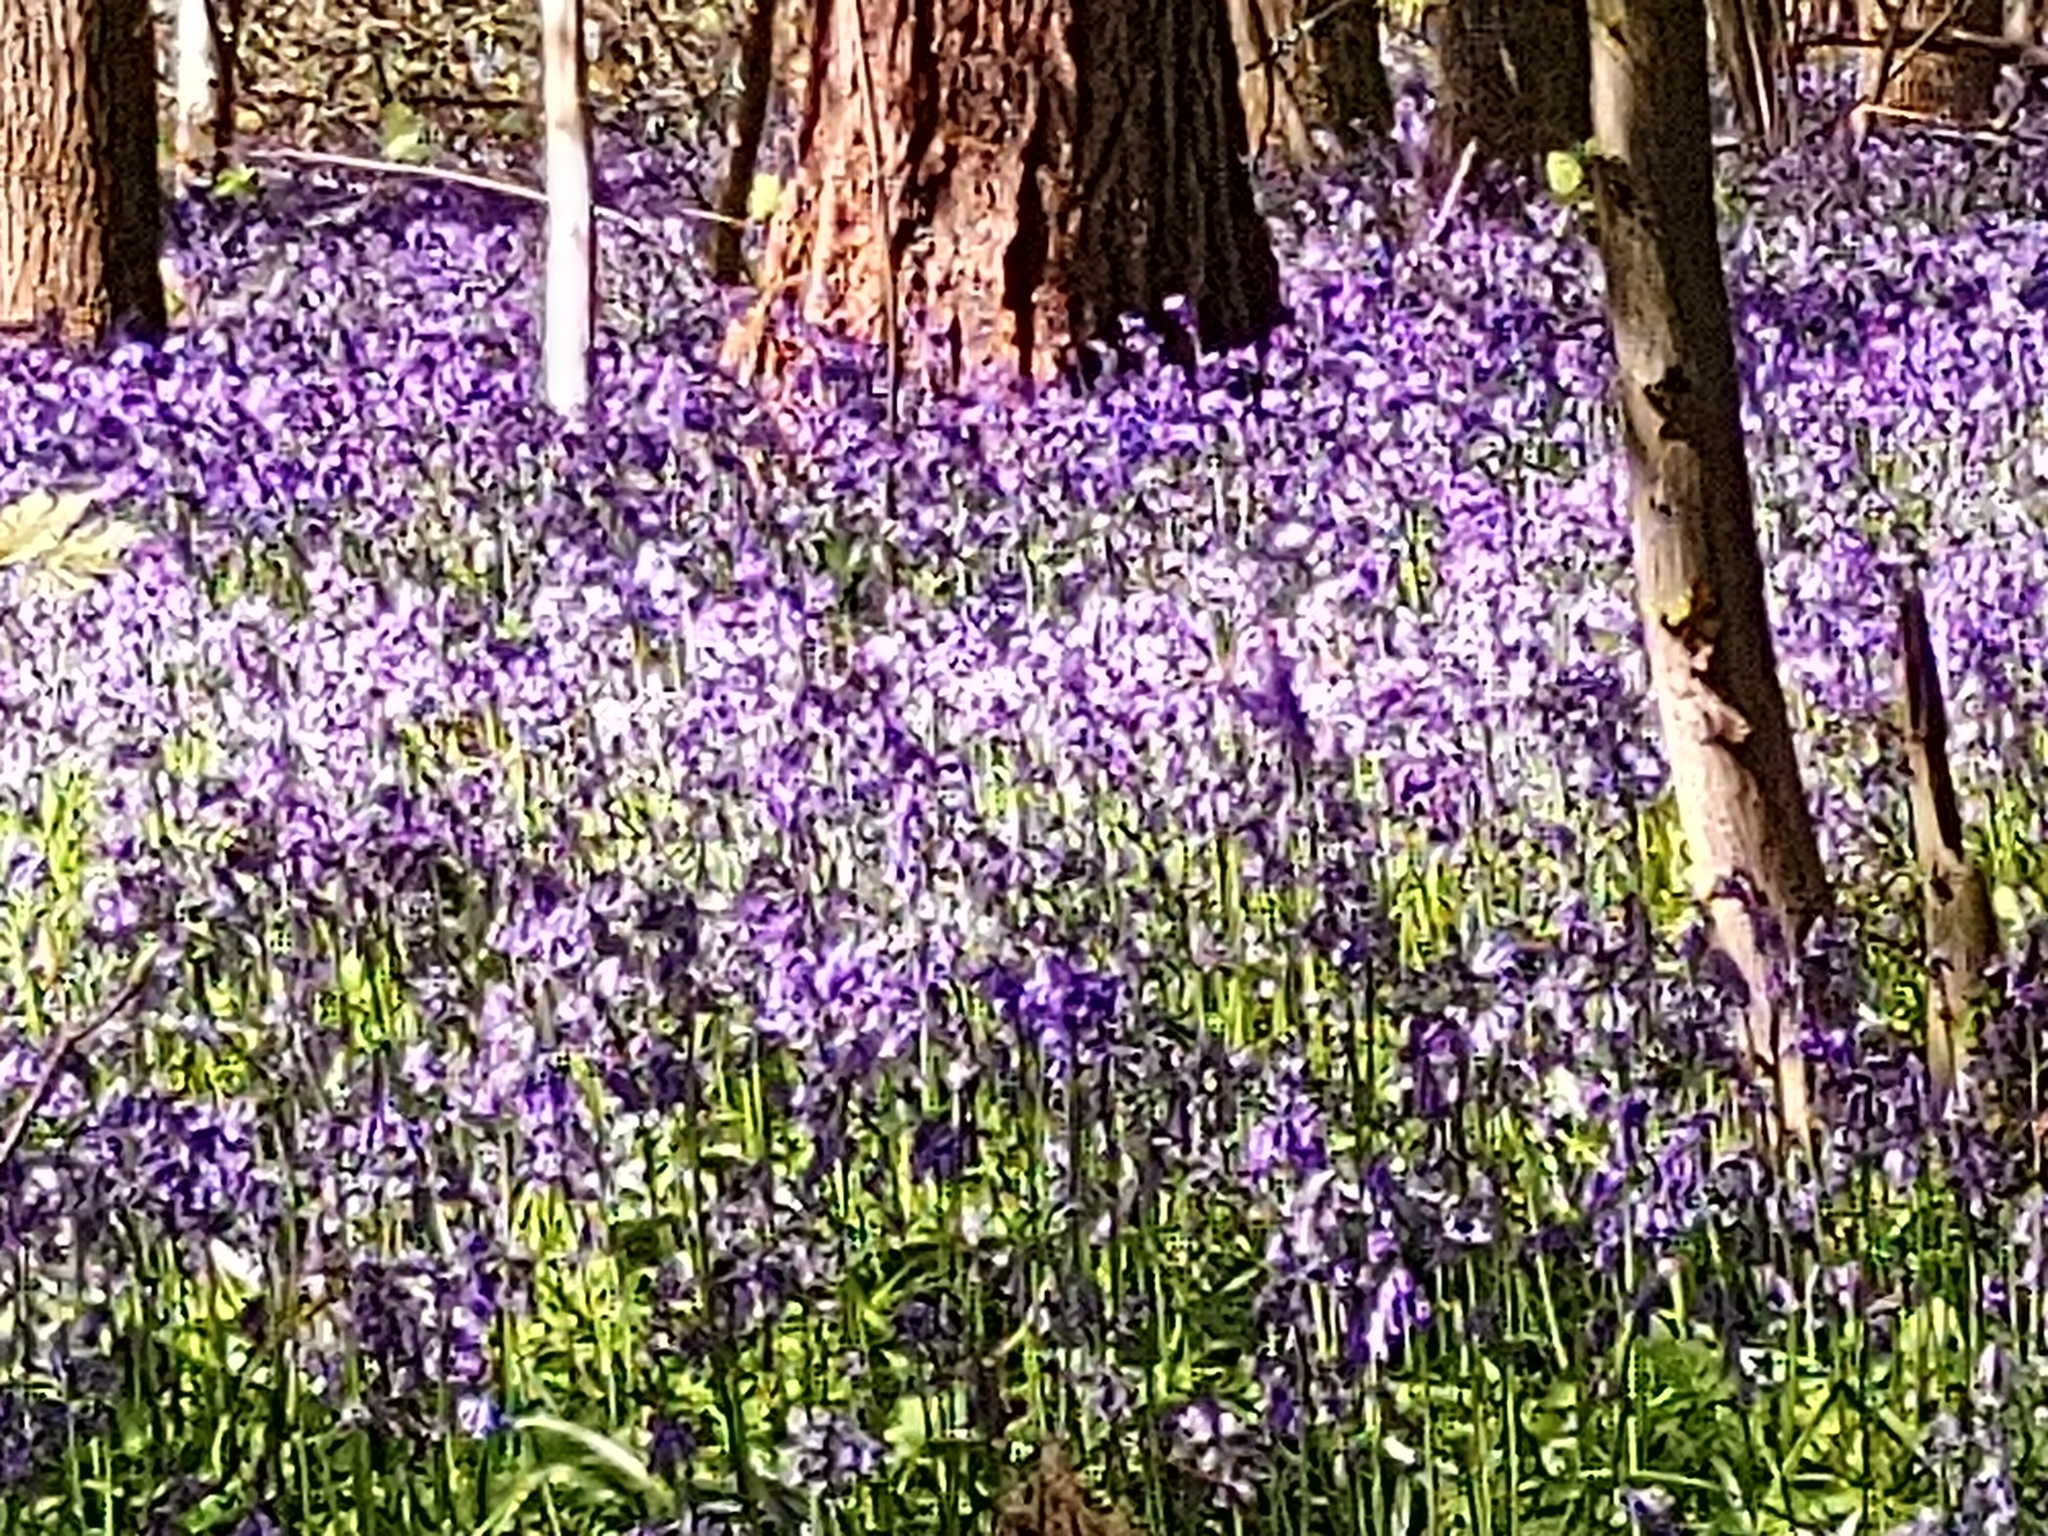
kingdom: Plantae
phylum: Tracheophyta
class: Liliopsida
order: Asparagales
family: Asparagaceae
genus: Hyacinthoides
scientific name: Hyacinthoides non-scripta
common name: Bluebell
